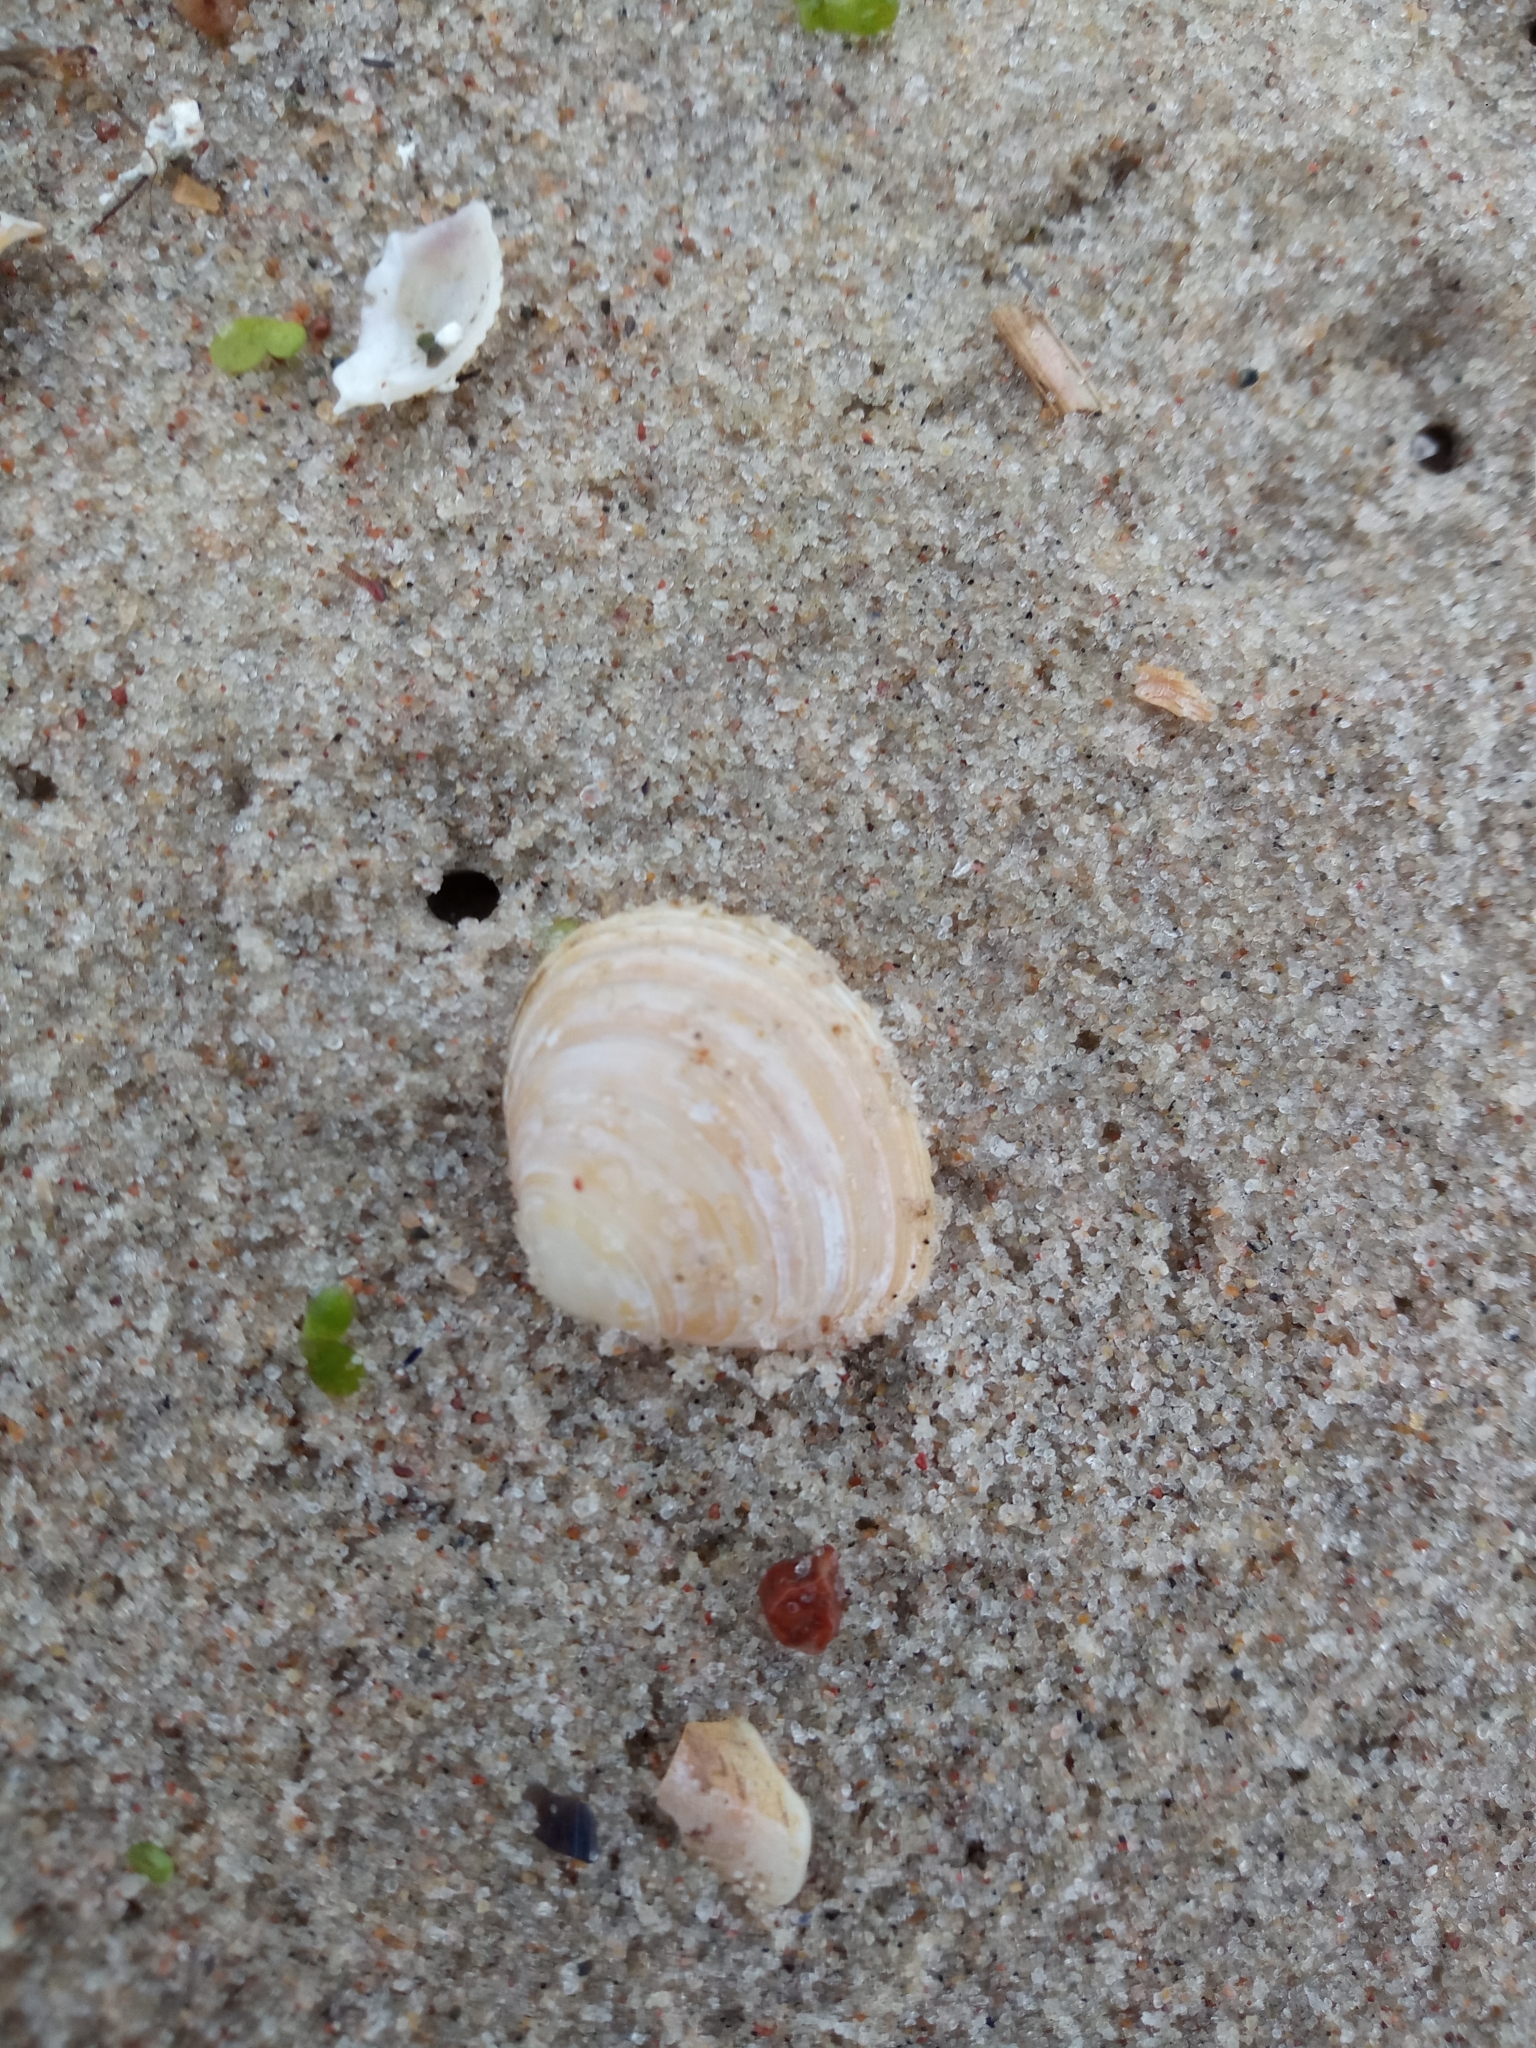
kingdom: Animalia
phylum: Mollusca
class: Bivalvia
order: Cardiida
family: Tellinidae
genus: Macoma
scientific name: Macoma balthica
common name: Baltic tellin
